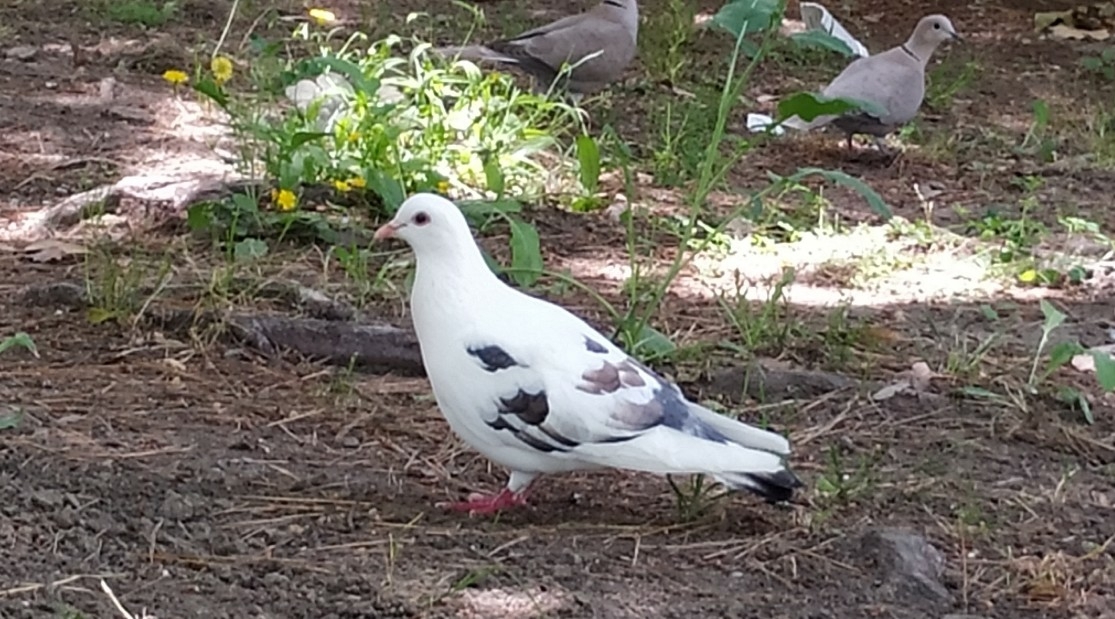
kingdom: Animalia
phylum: Chordata
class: Aves
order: Columbiformes
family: Columbidae
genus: Columba
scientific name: Columba livia
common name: Rock pigeon
